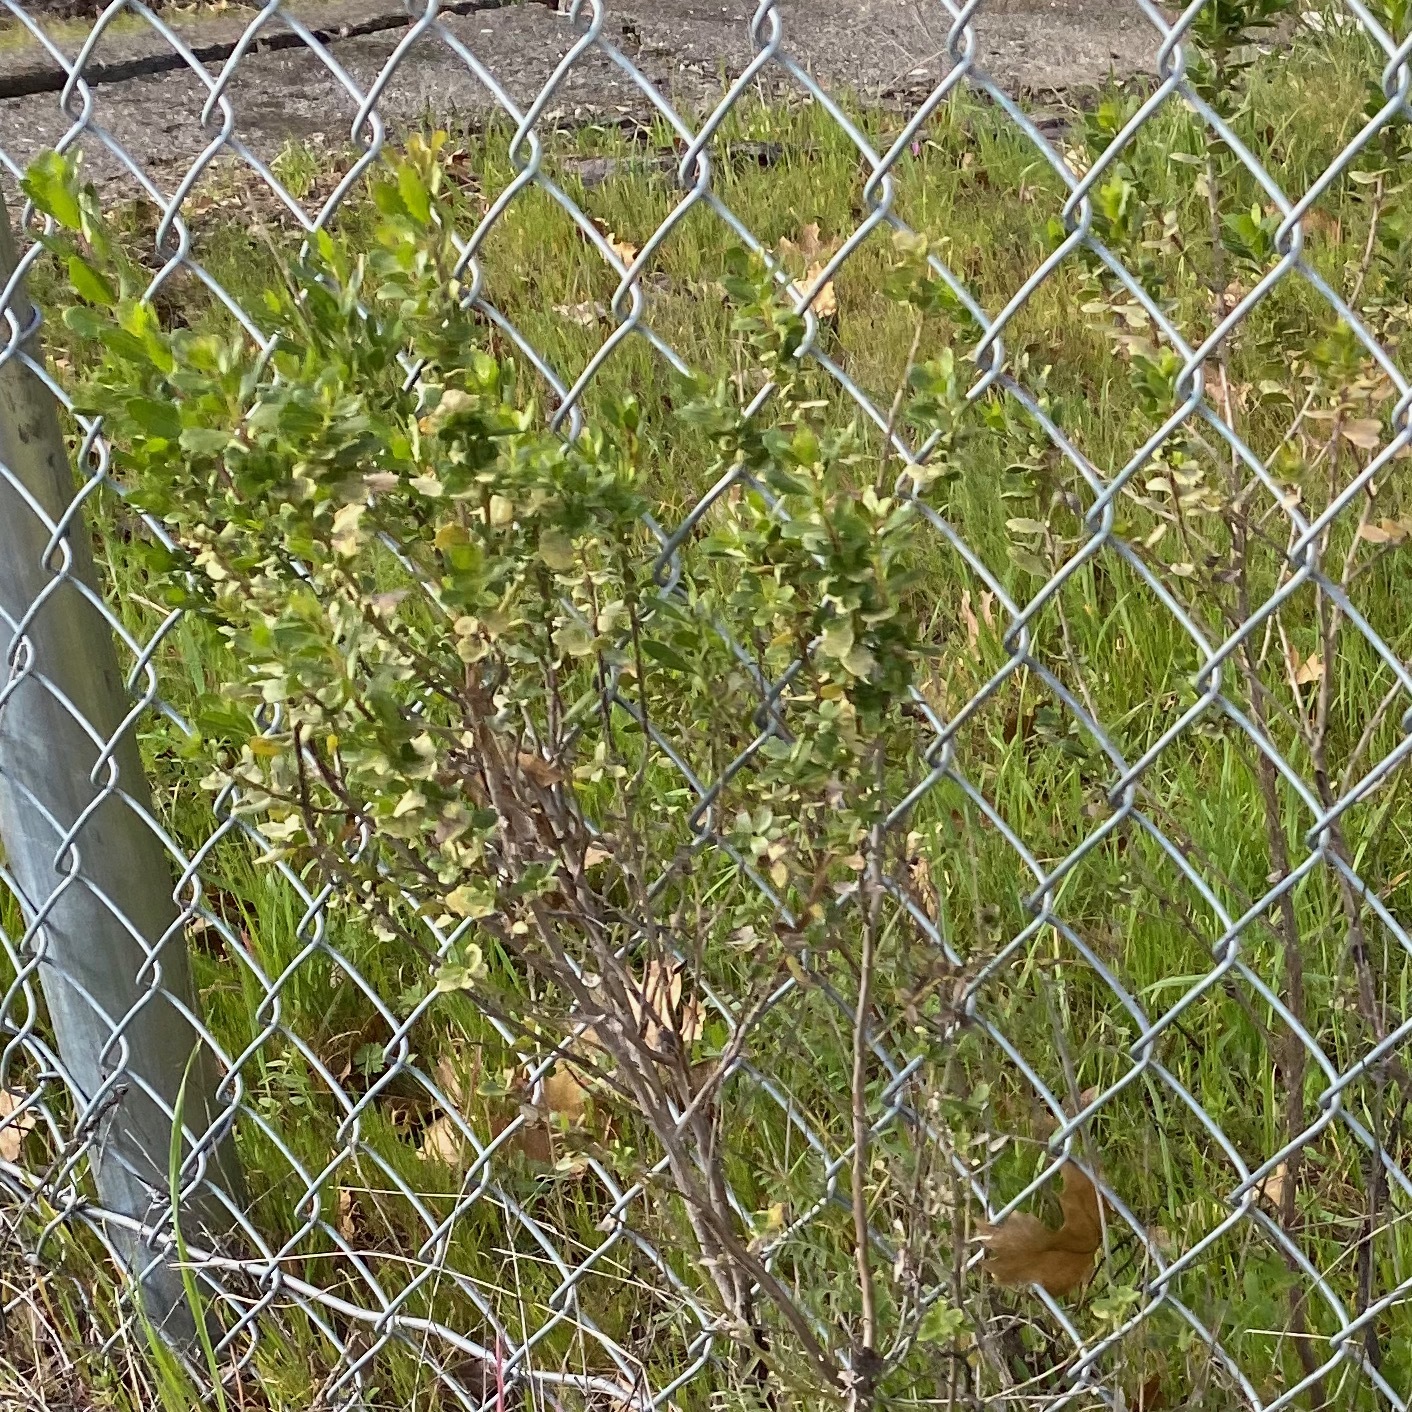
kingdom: Plantae
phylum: Tracheophyta
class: Magnoliopsida
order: Asterales
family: Asteraceae
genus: Baccharis
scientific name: Baccharis pilularis
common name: Coyotebrush
